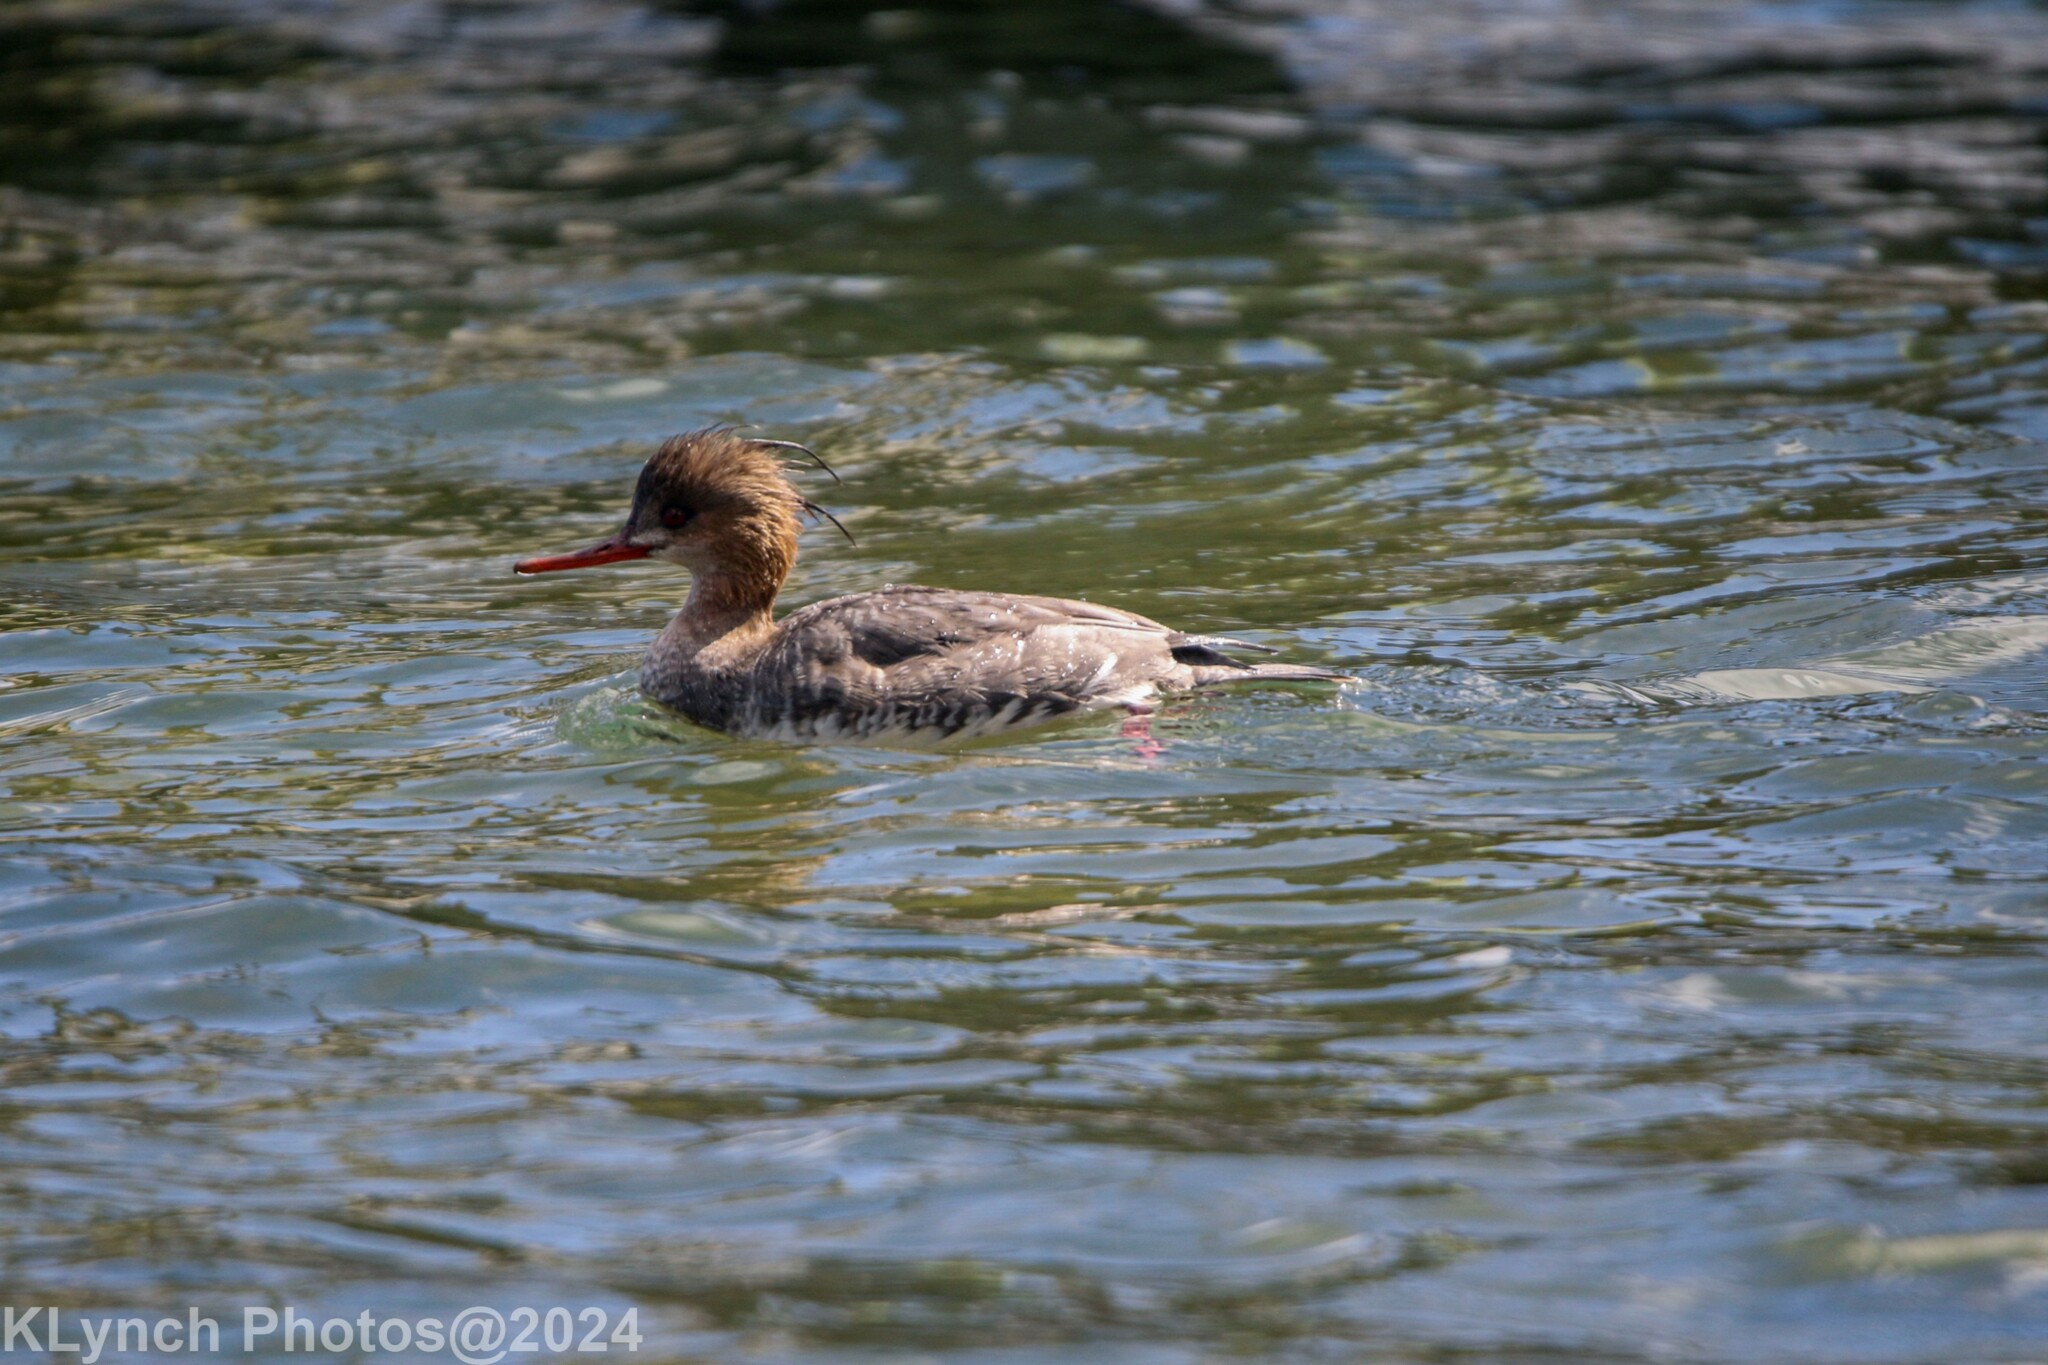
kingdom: Animalia
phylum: Chordata
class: Aves
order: Anseriformes
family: Anatidae
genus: Mergus
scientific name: Mergus serrator
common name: Red-breasted merganser
